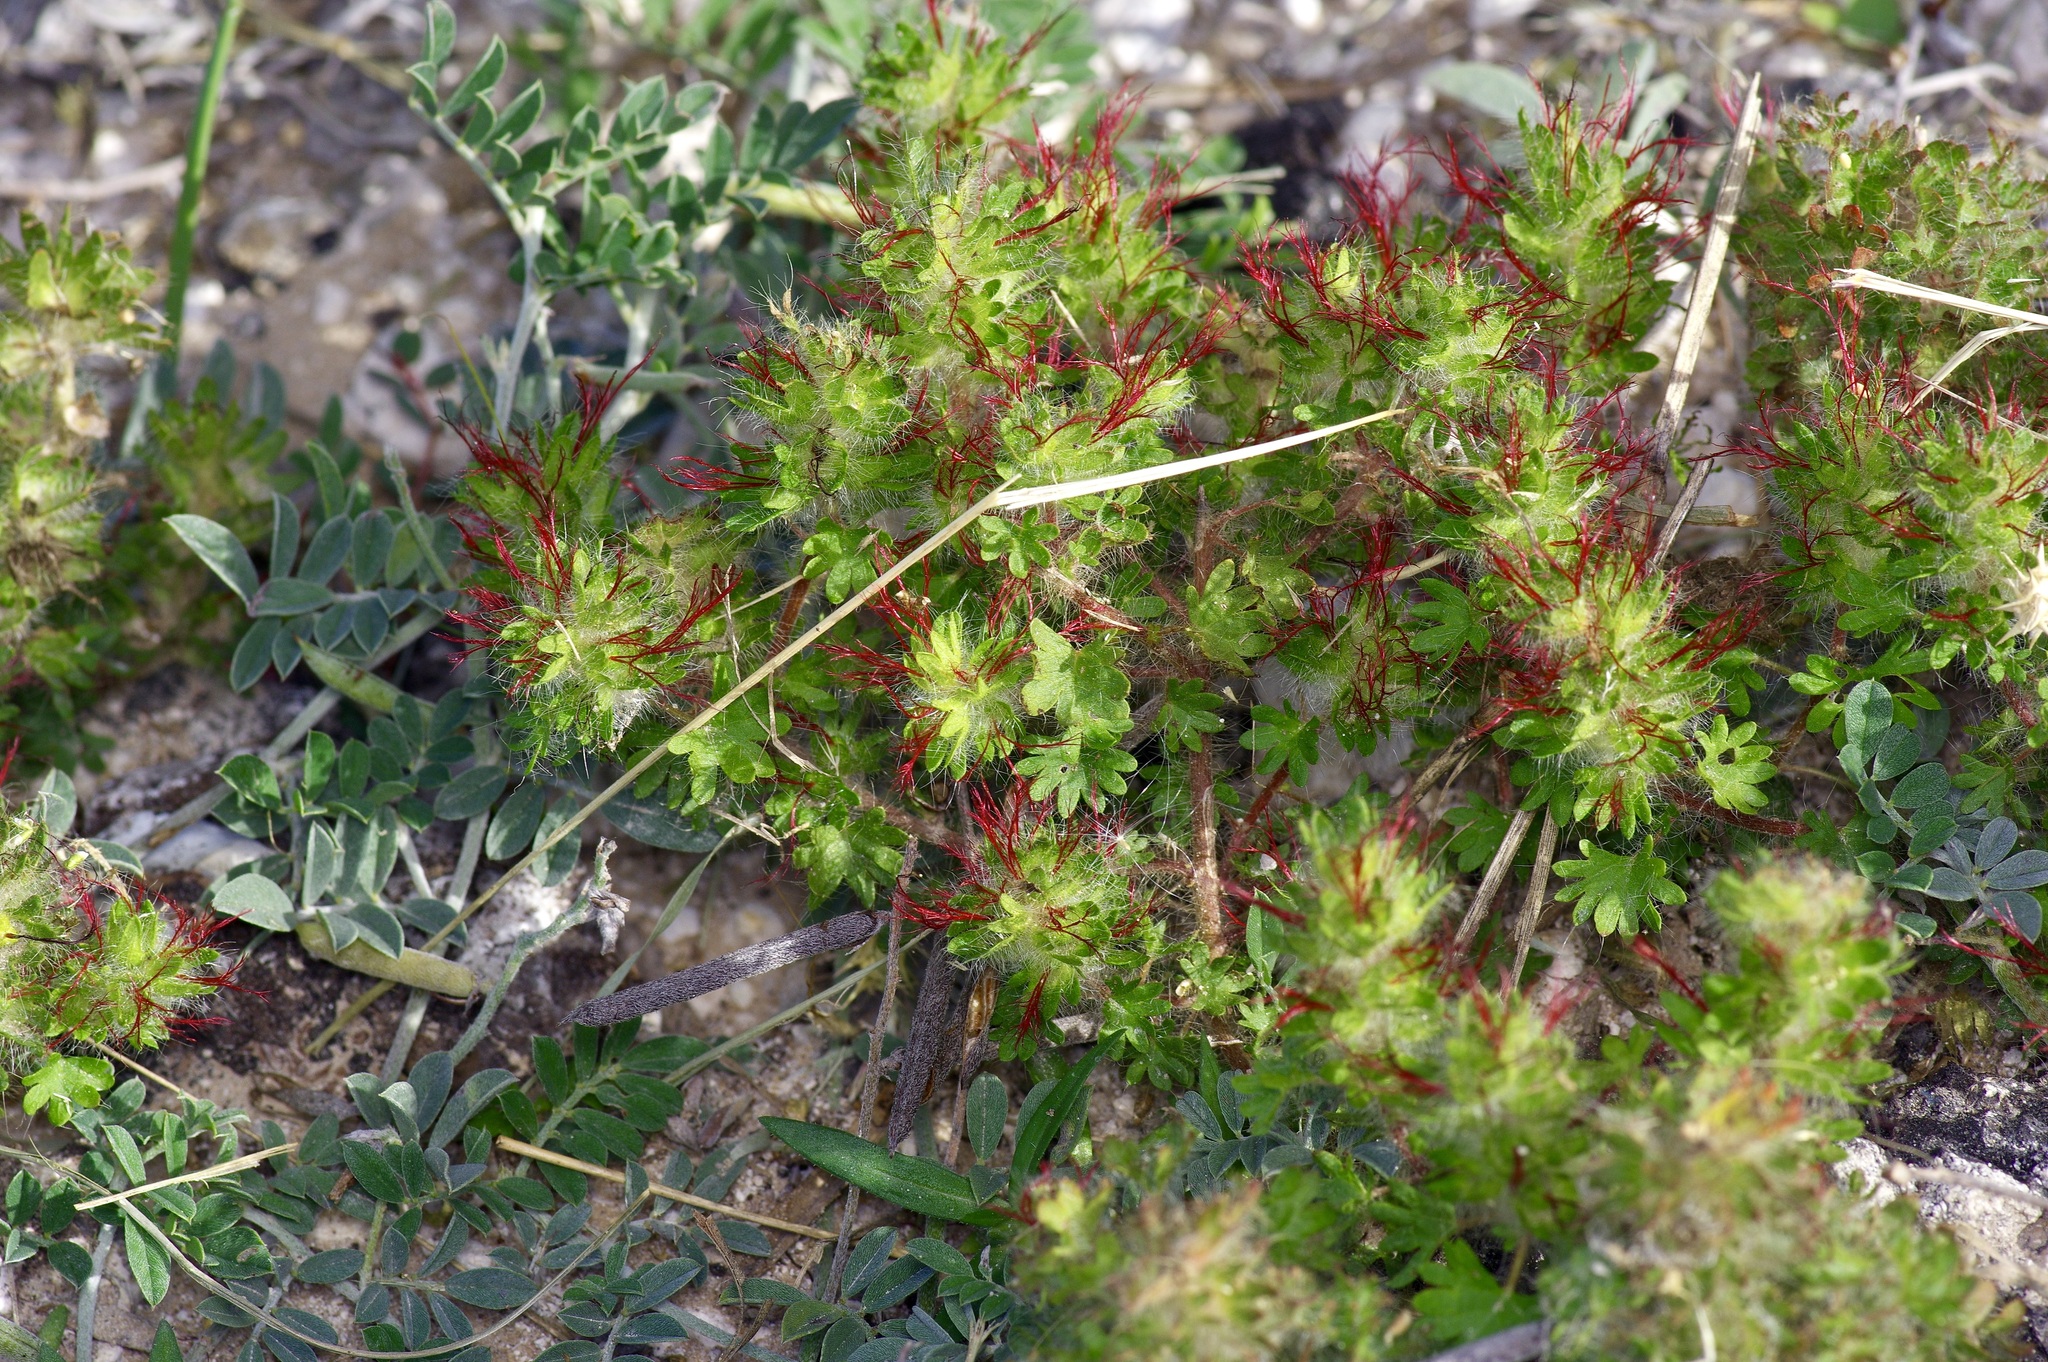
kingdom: Plantae
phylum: Tracheophyta
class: Magnoliopsida
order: Malpighiales
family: Euphorbiaceae
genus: Acalypha
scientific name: Acalypha radians
